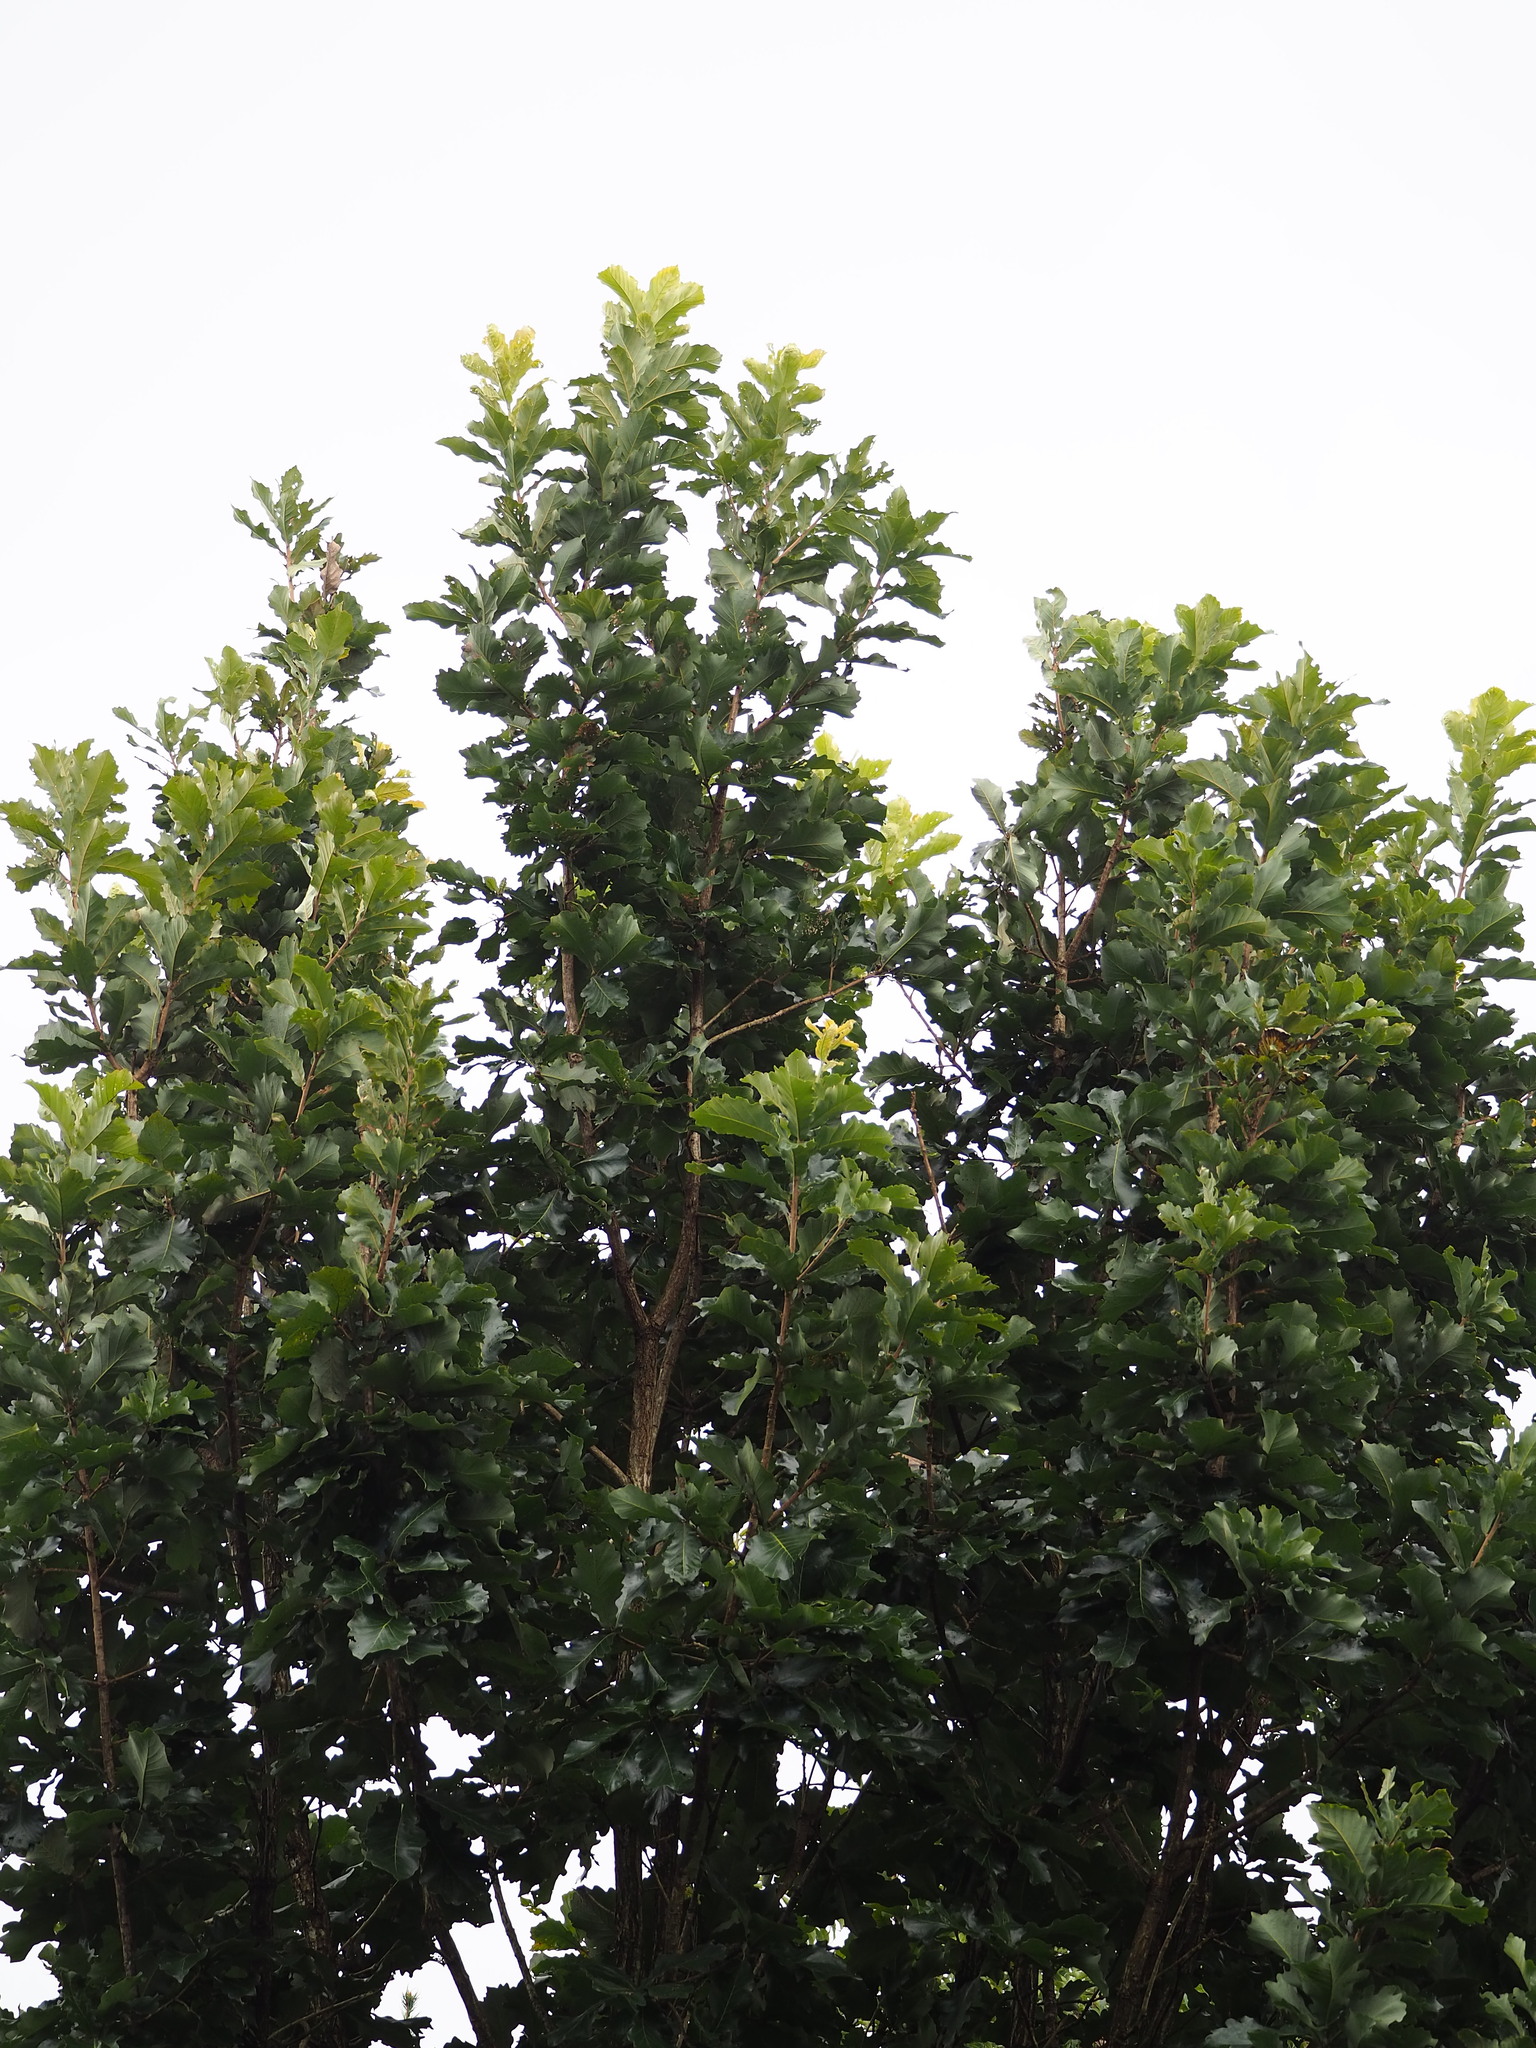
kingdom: Plantae
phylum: Tracheophyta
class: Magnoliopsida
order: Fagales
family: Fagaceae
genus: Quercus
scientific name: Quercus aliena
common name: Oriental white oak
